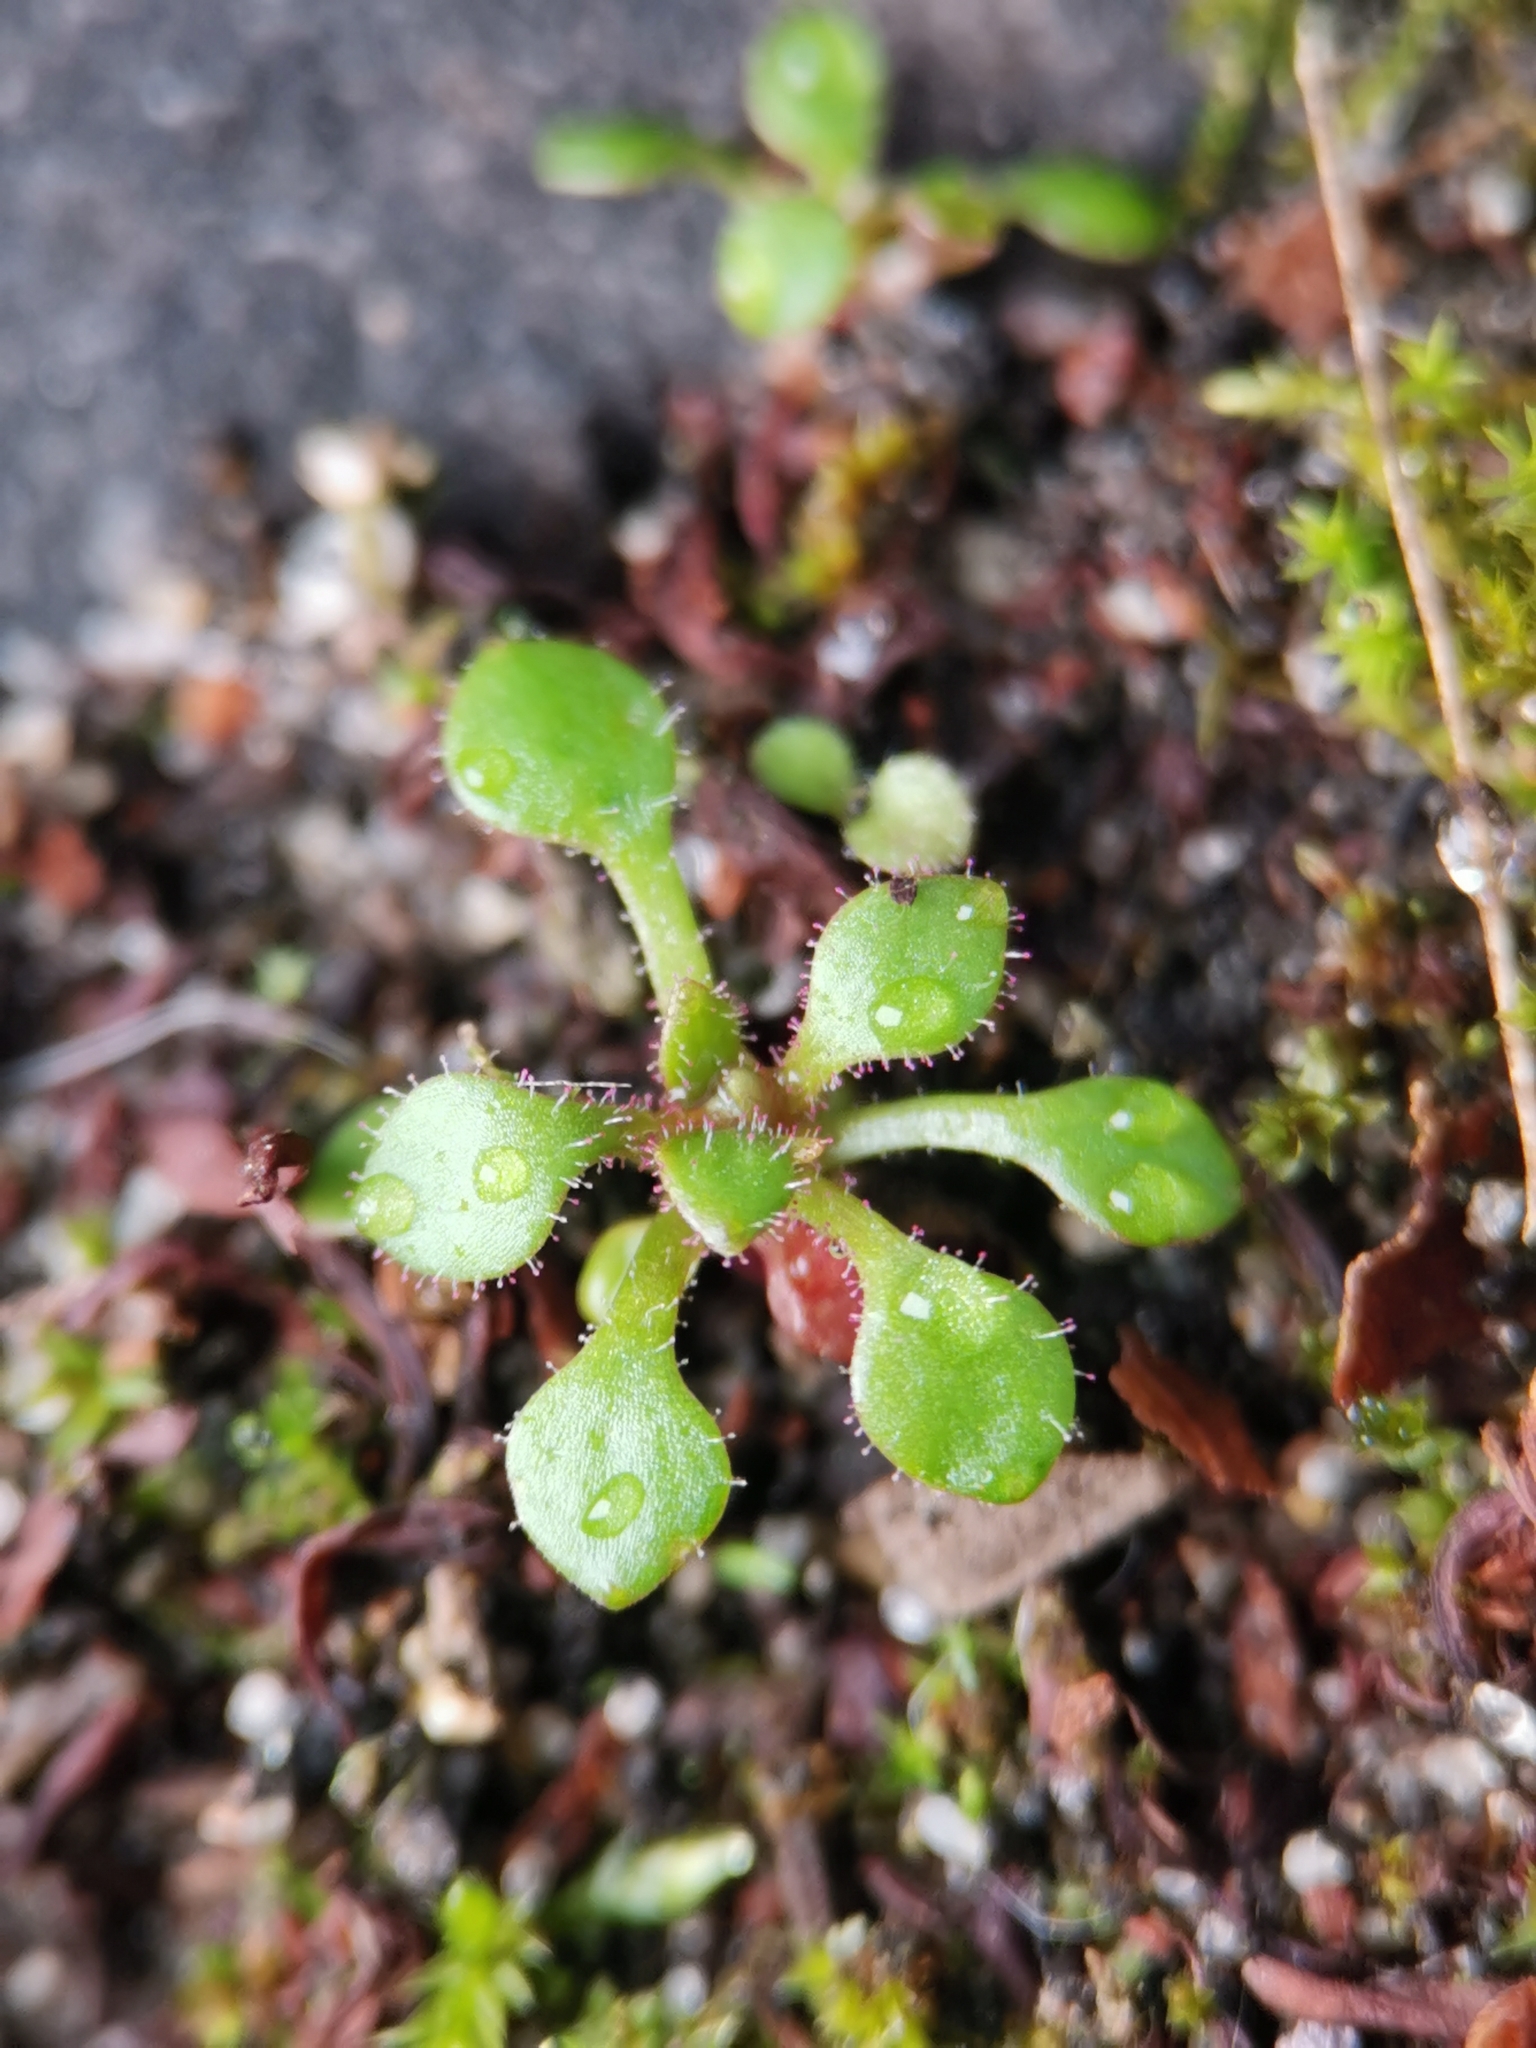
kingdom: Plantae
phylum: Tracheophyta
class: Magnoliopsida
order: Saxifragales
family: Saxifragaceae
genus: Saxifraga
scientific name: Saxifraga tridactylites
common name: Rue-leaved saxifrage
